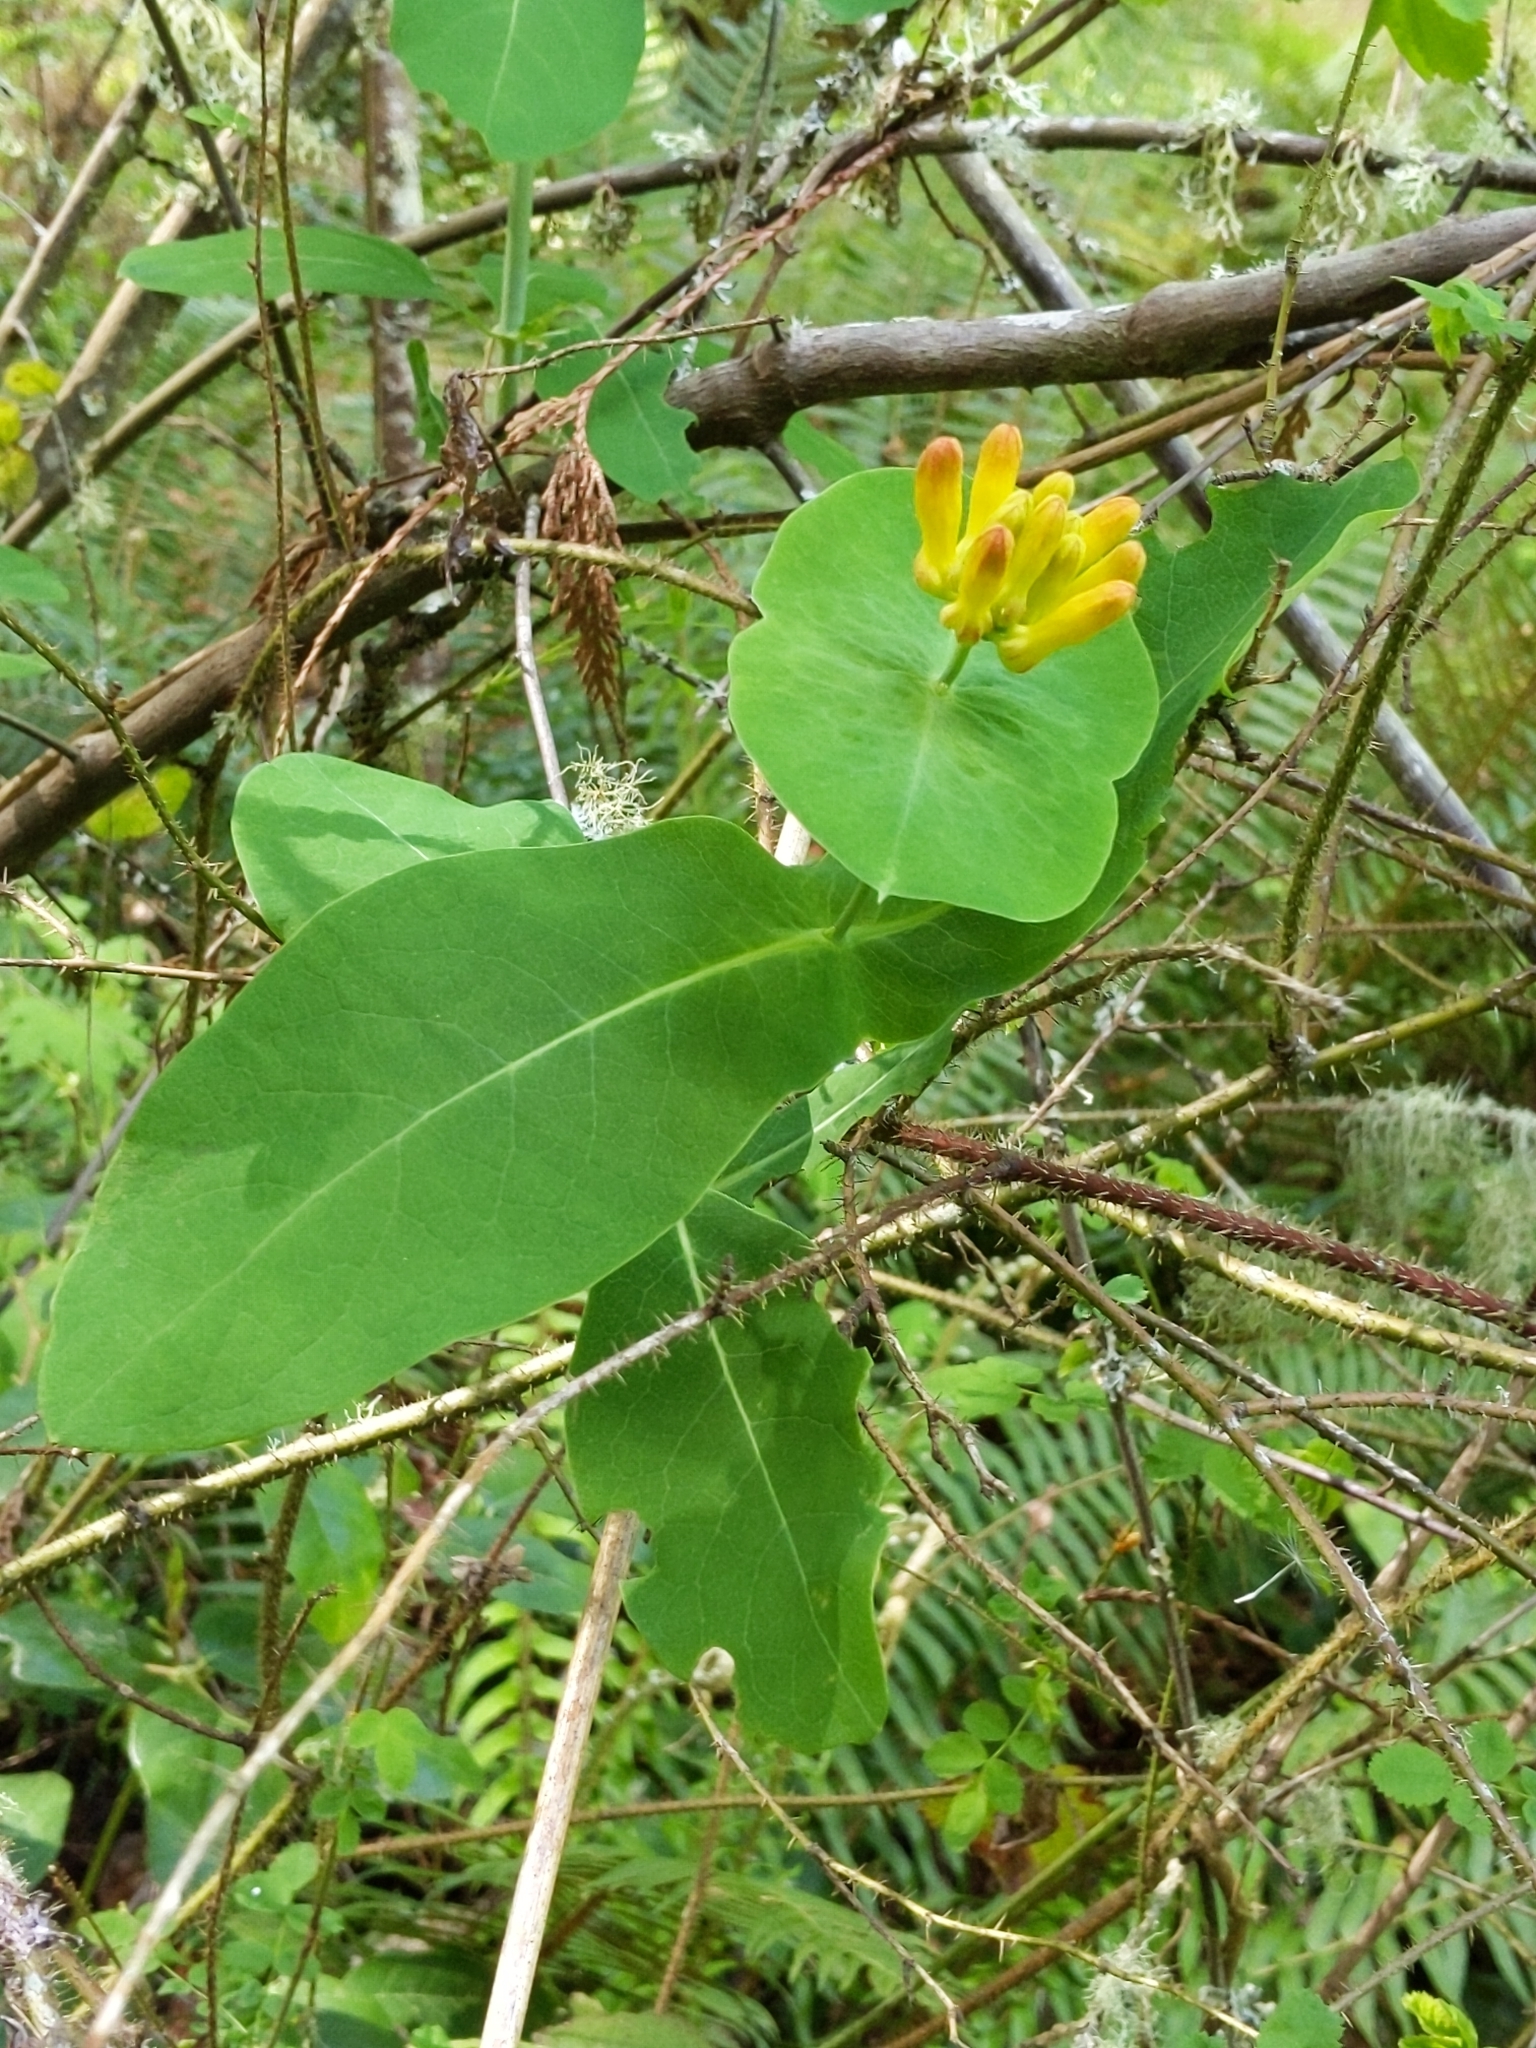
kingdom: Plantae
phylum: Tracheophyta
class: Magnoliopsida
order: Dipsacales
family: Caprifoliaceae
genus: Lonicera
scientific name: Lonicera ciliosa
